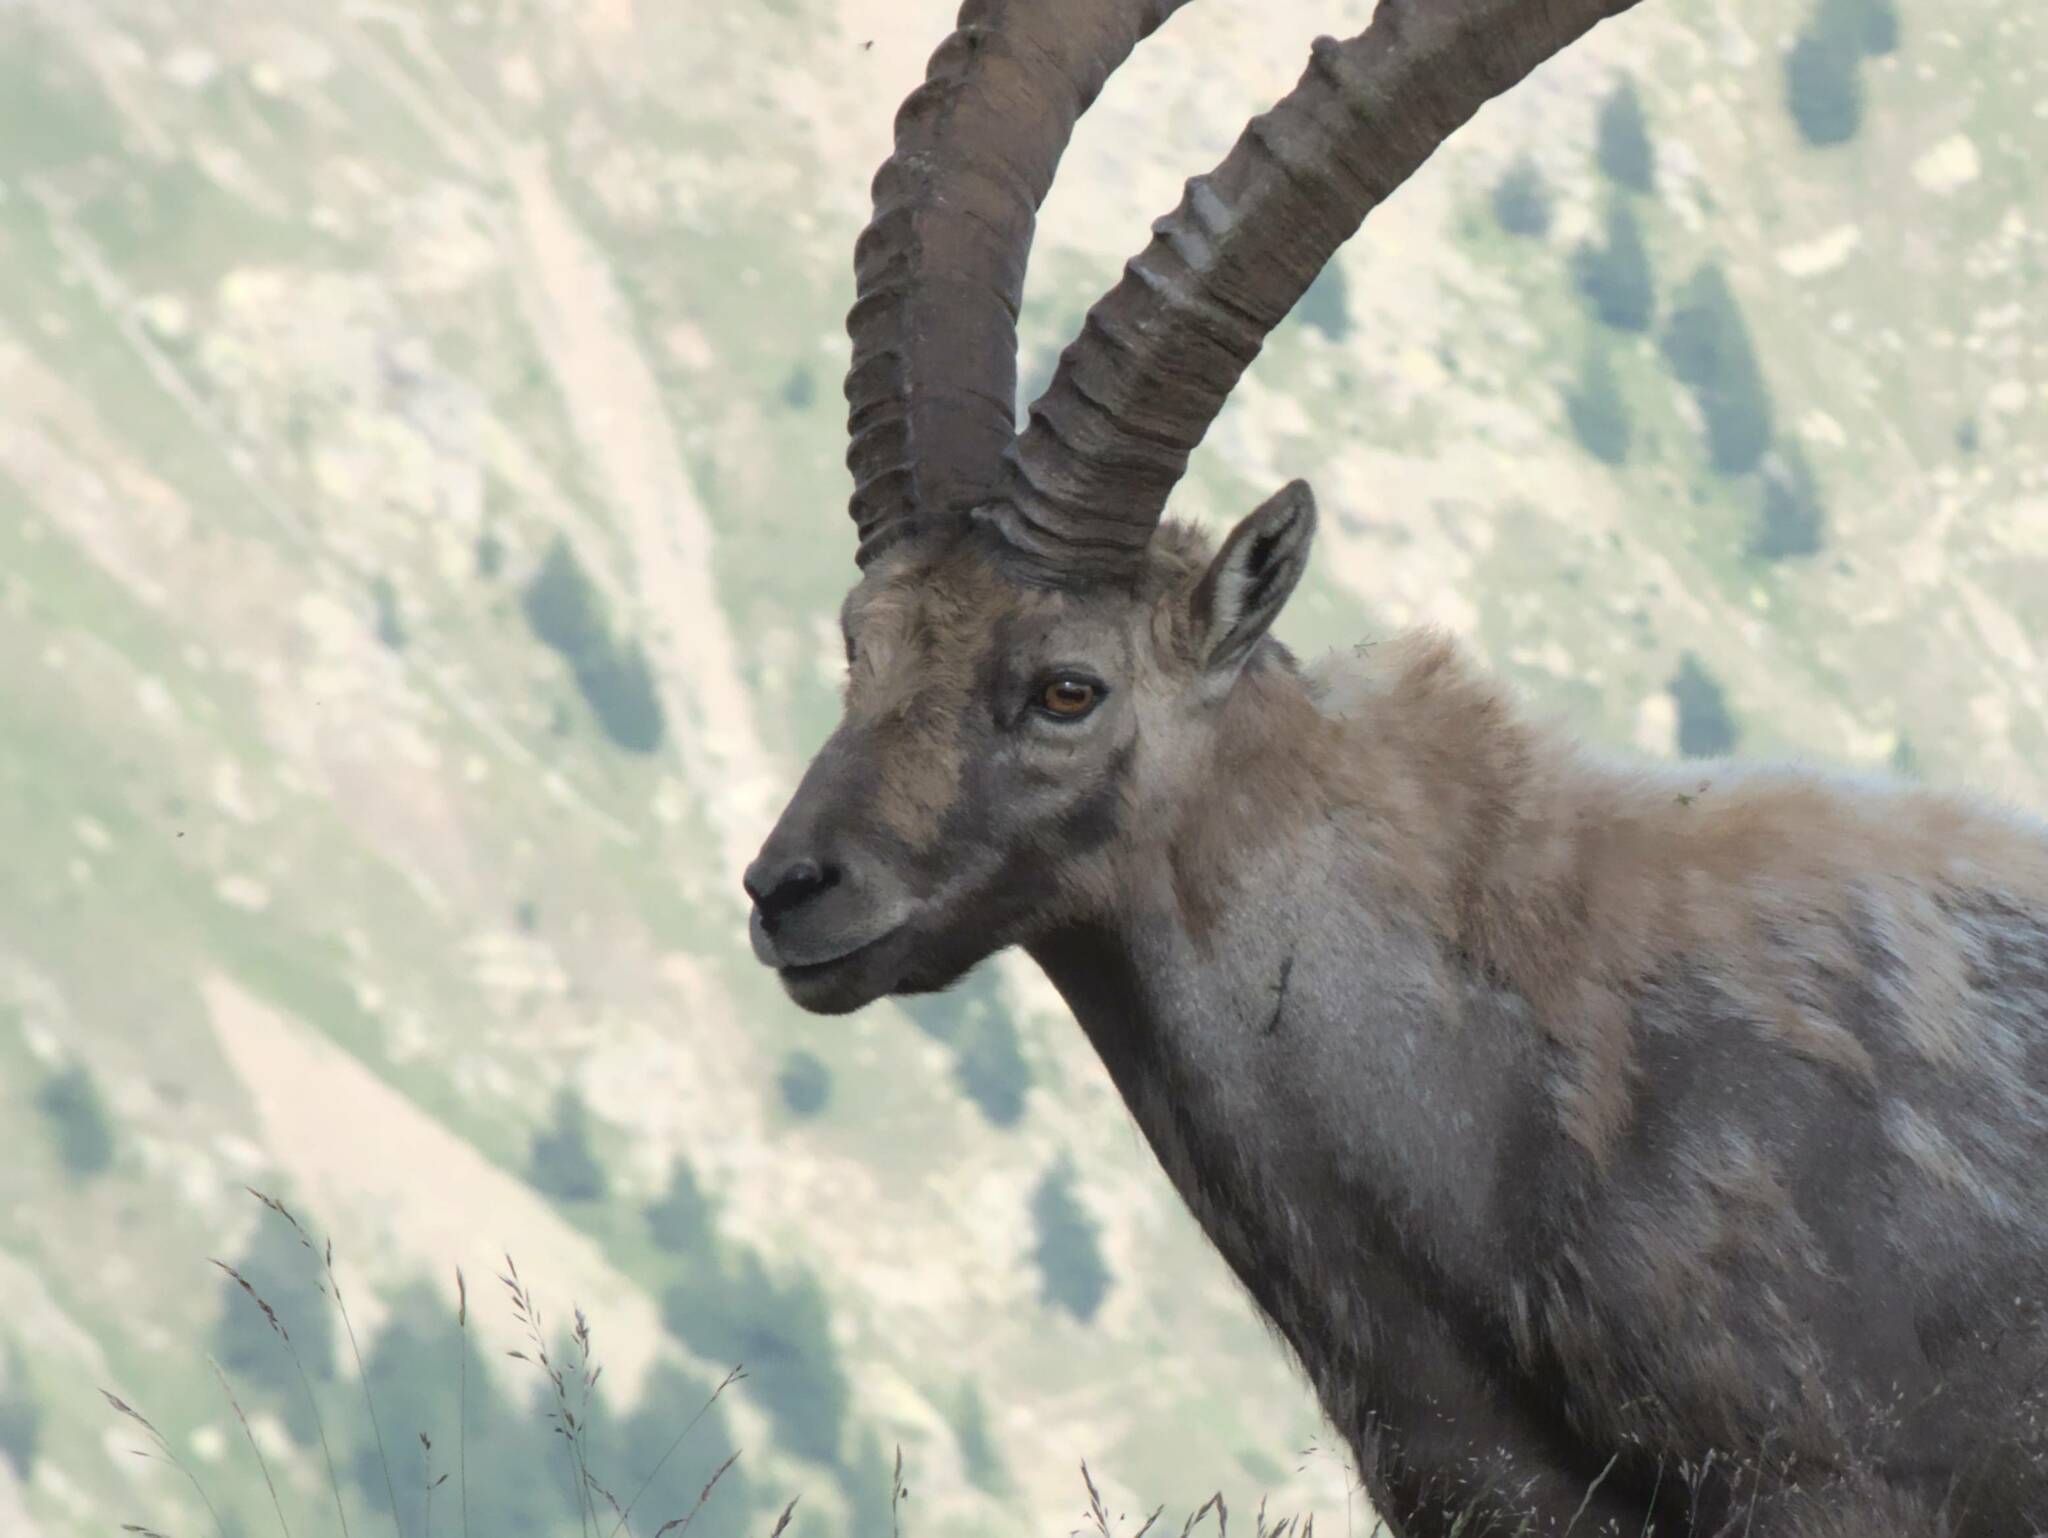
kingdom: Animalia
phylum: Chordata
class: Mammalia
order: Artiodactyla
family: Bovidae
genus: Capra
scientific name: Capra ibex
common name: Alpine ibex
